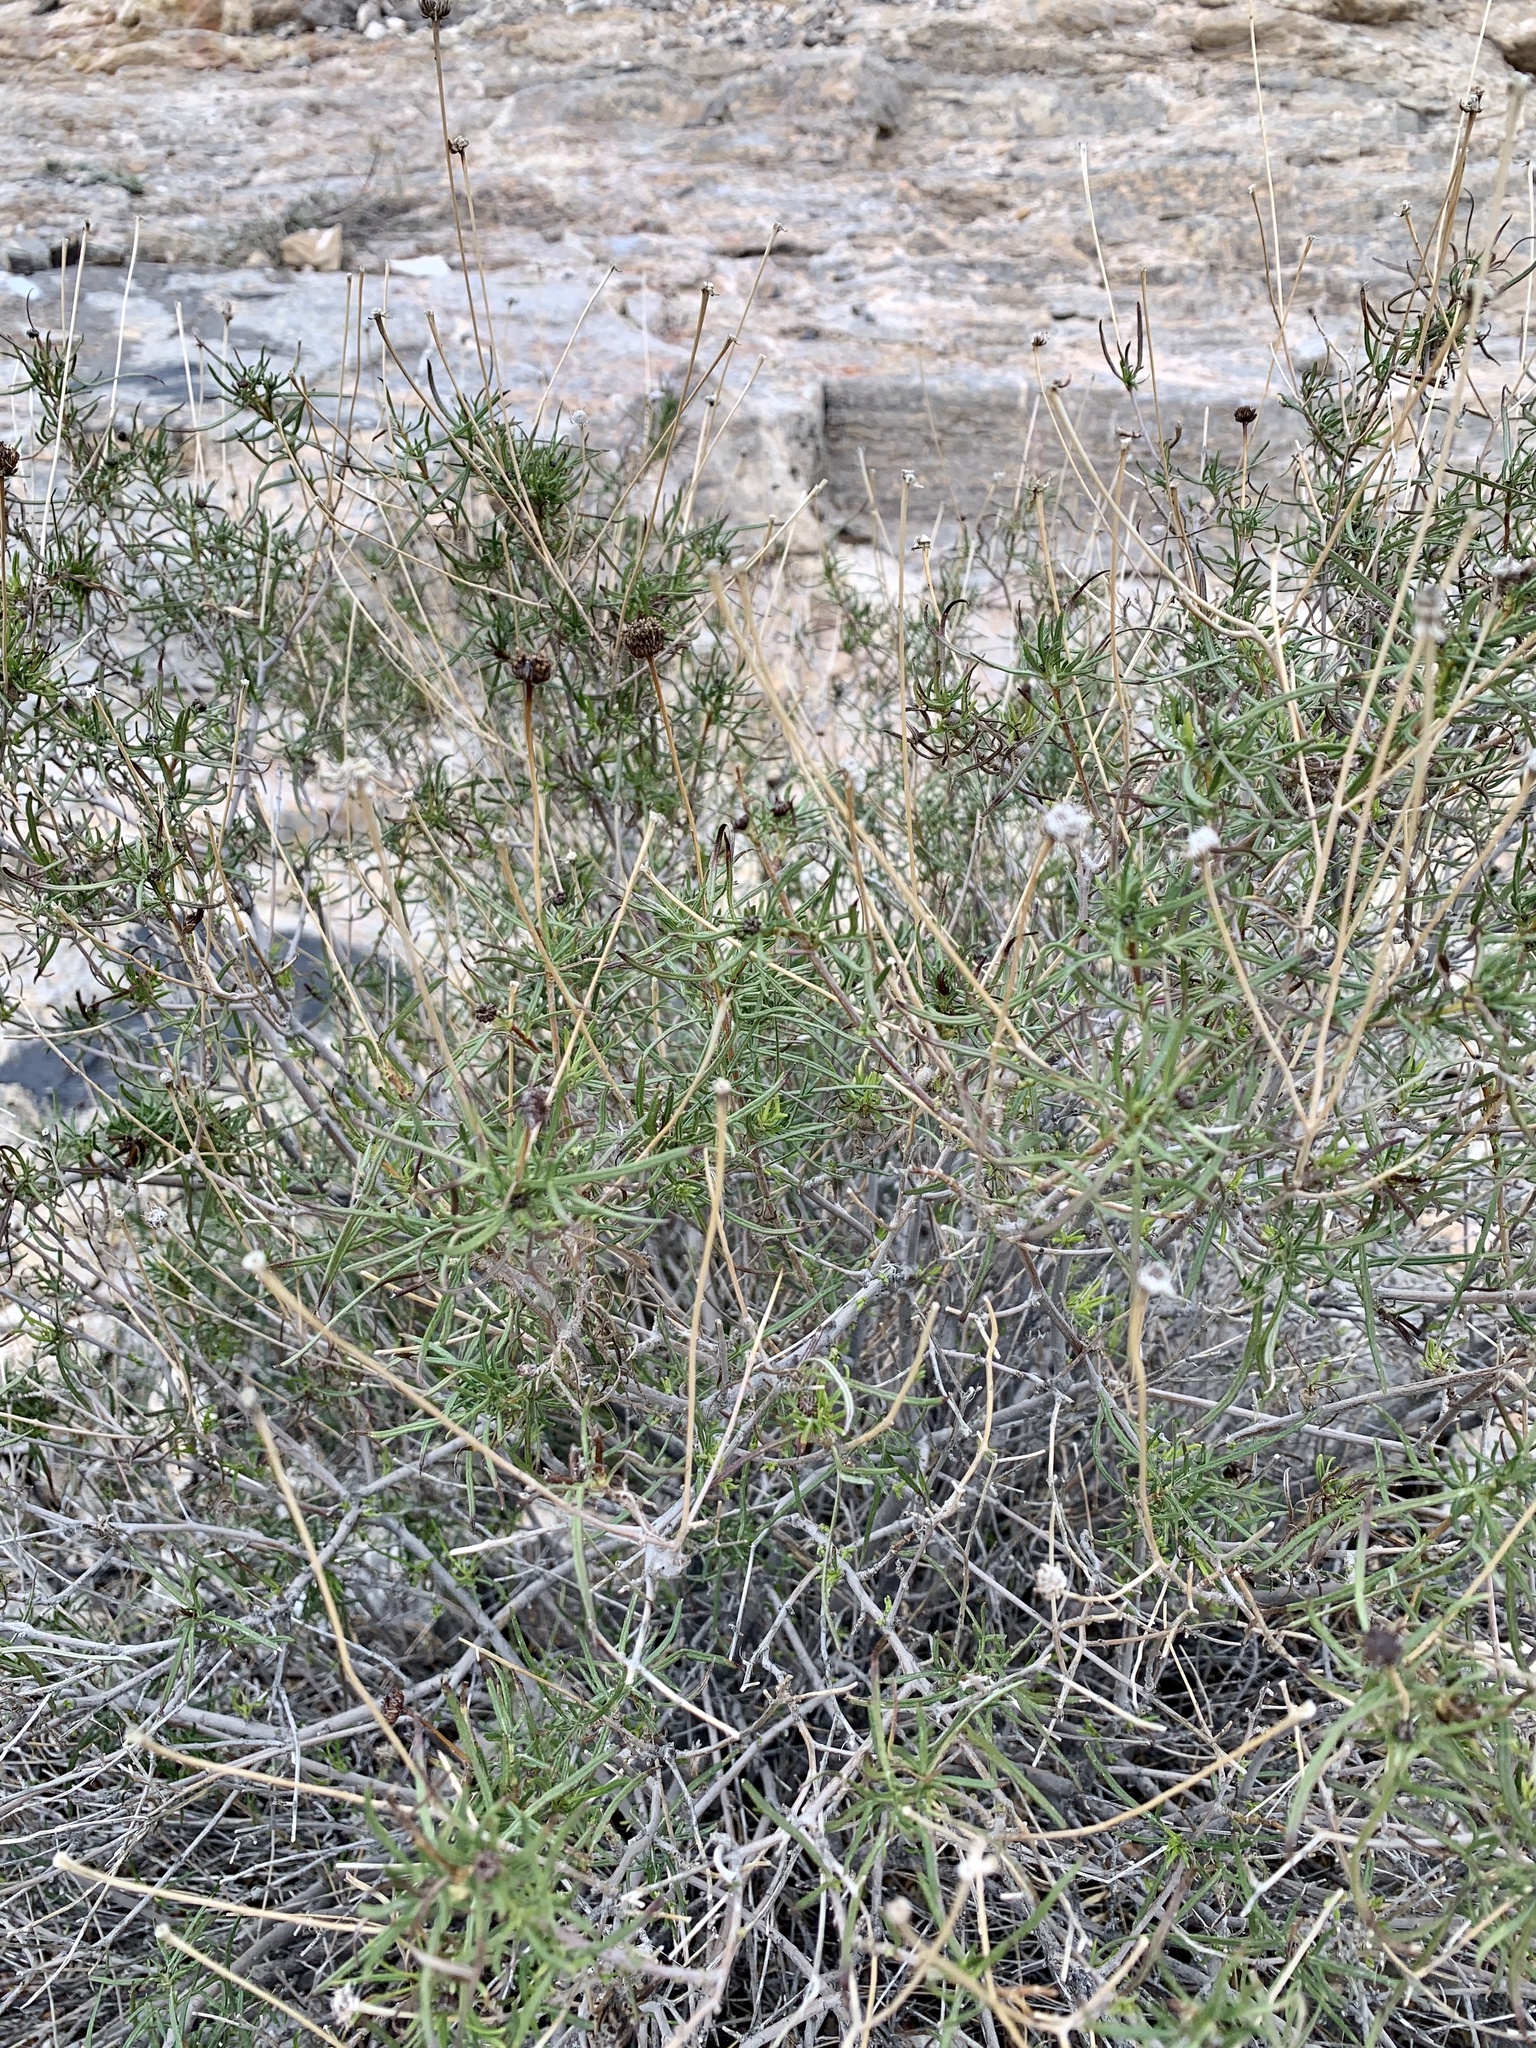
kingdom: Plantae
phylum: Tracheophyta
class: Magnoliopsida
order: Asterales
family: Asteraceae
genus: Sidneya
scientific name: Sidneya tenuifolia
